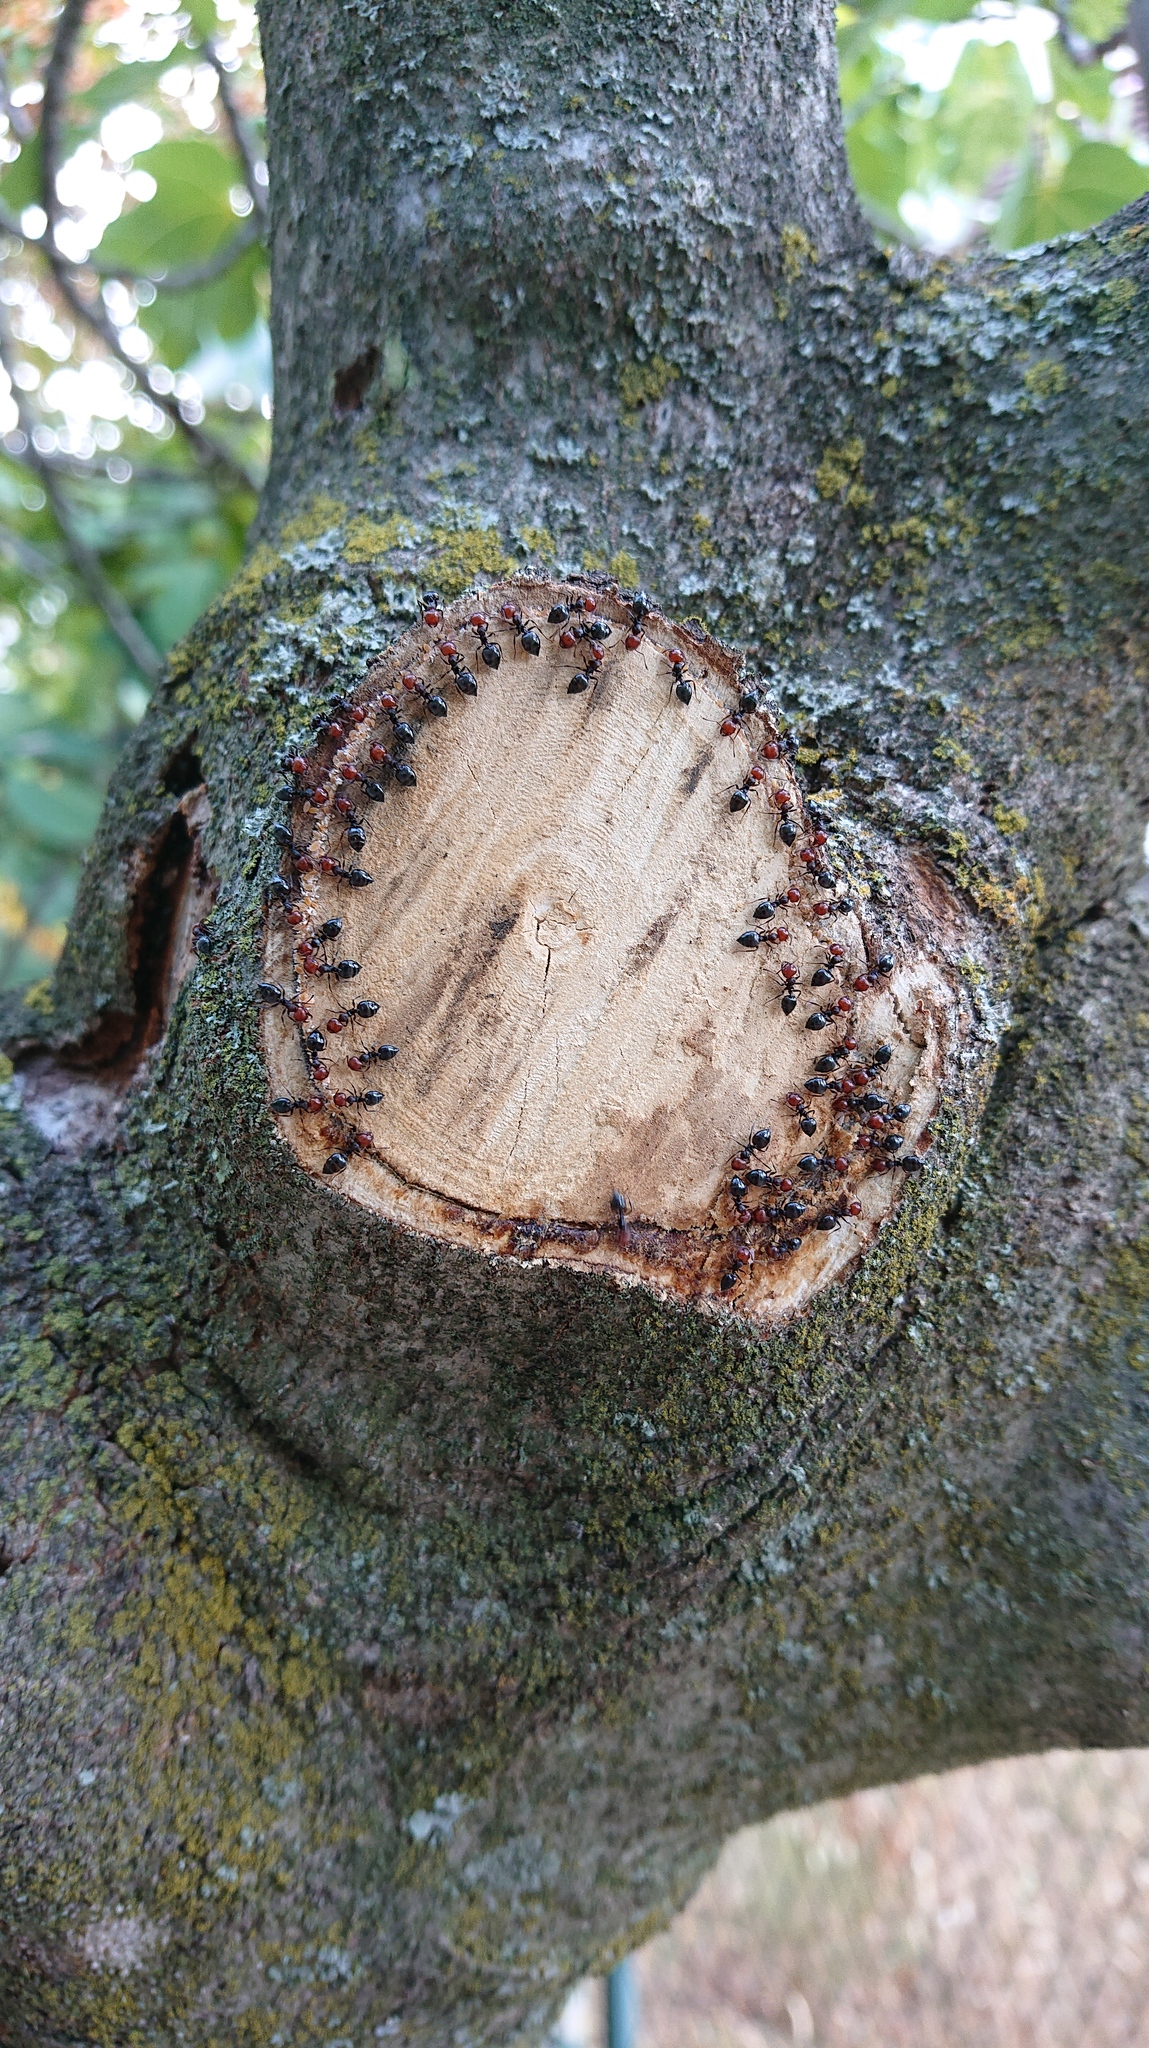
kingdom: Animalia
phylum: Arthropoda
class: Insecta
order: Hymenoptera
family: Formicidae
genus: Crematogaster
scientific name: Crematogaster scutellaris
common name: Fourmi du liège
